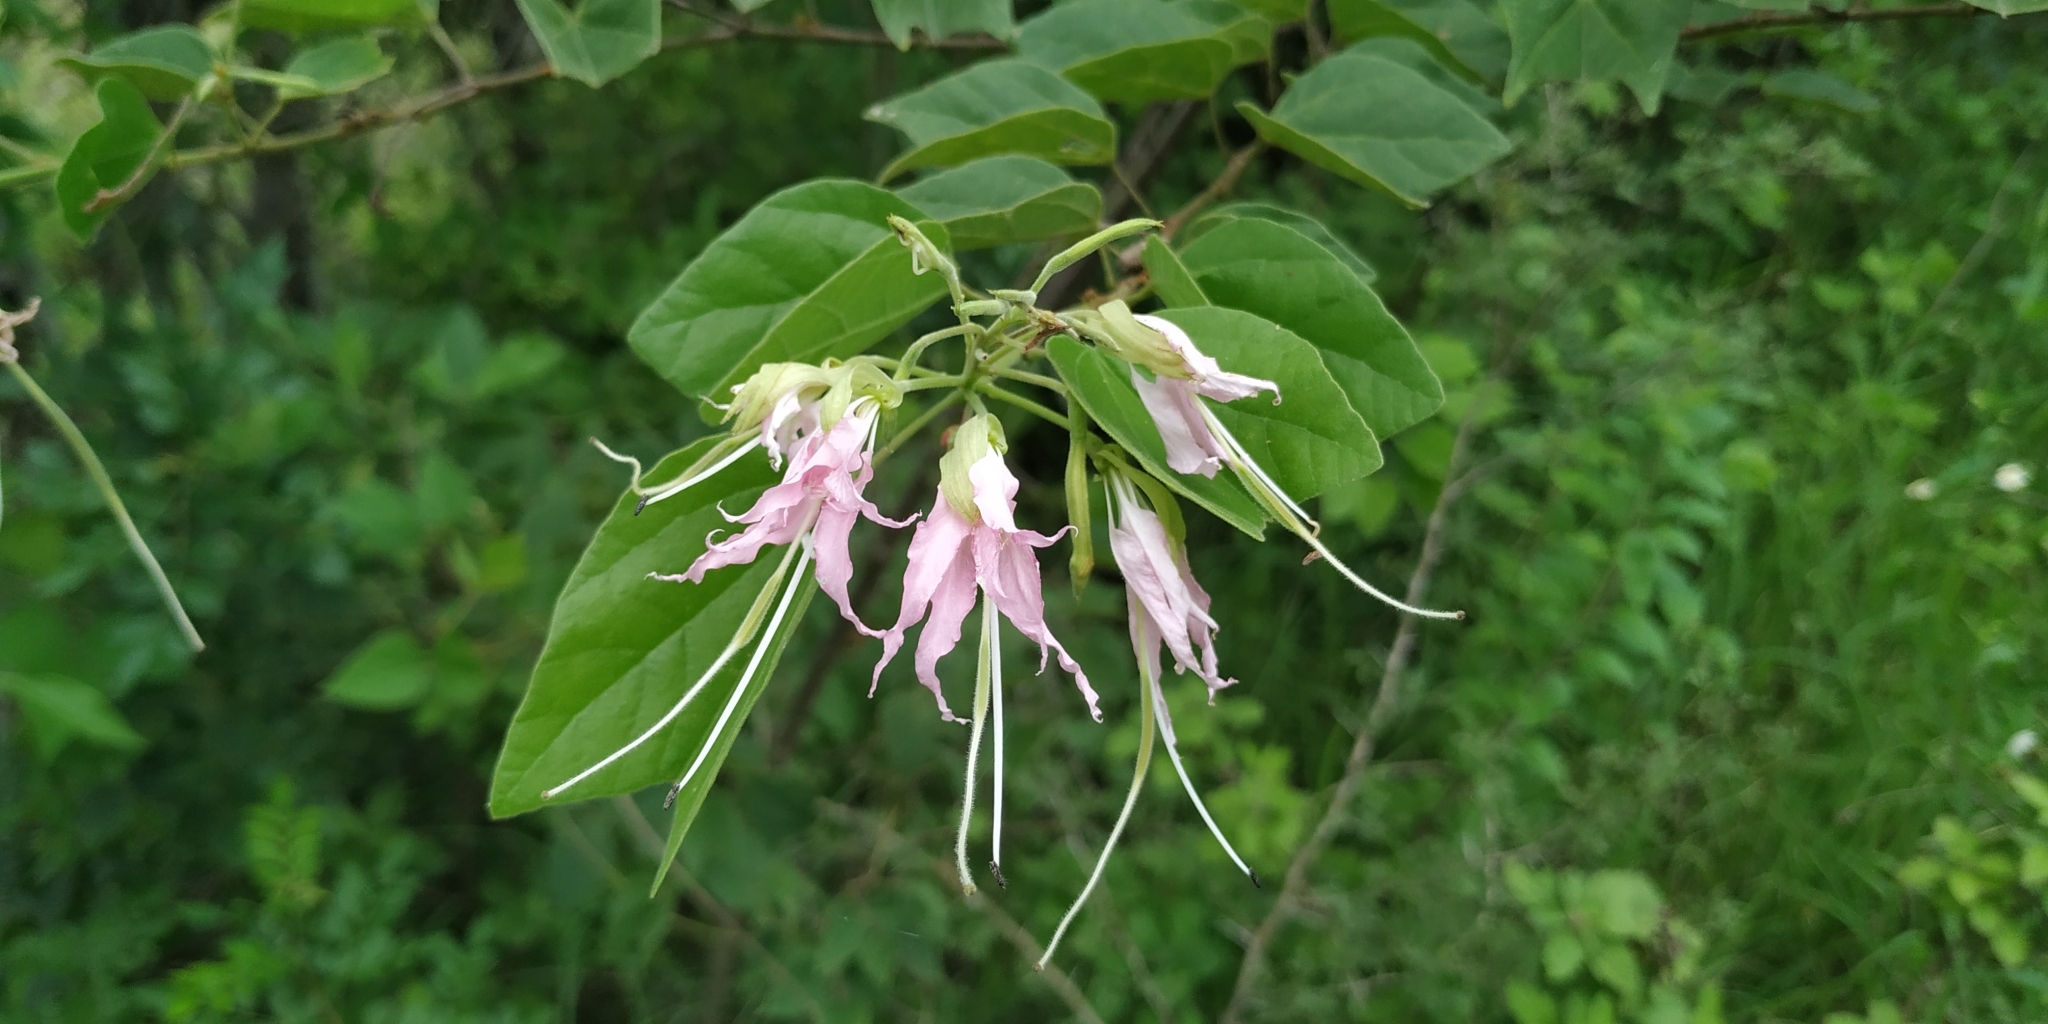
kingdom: Plantae
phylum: Tracheophyta
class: Magnoliopsida
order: Fabales
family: Fabaceae
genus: Bauhinia
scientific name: Bauhinia divaricata
